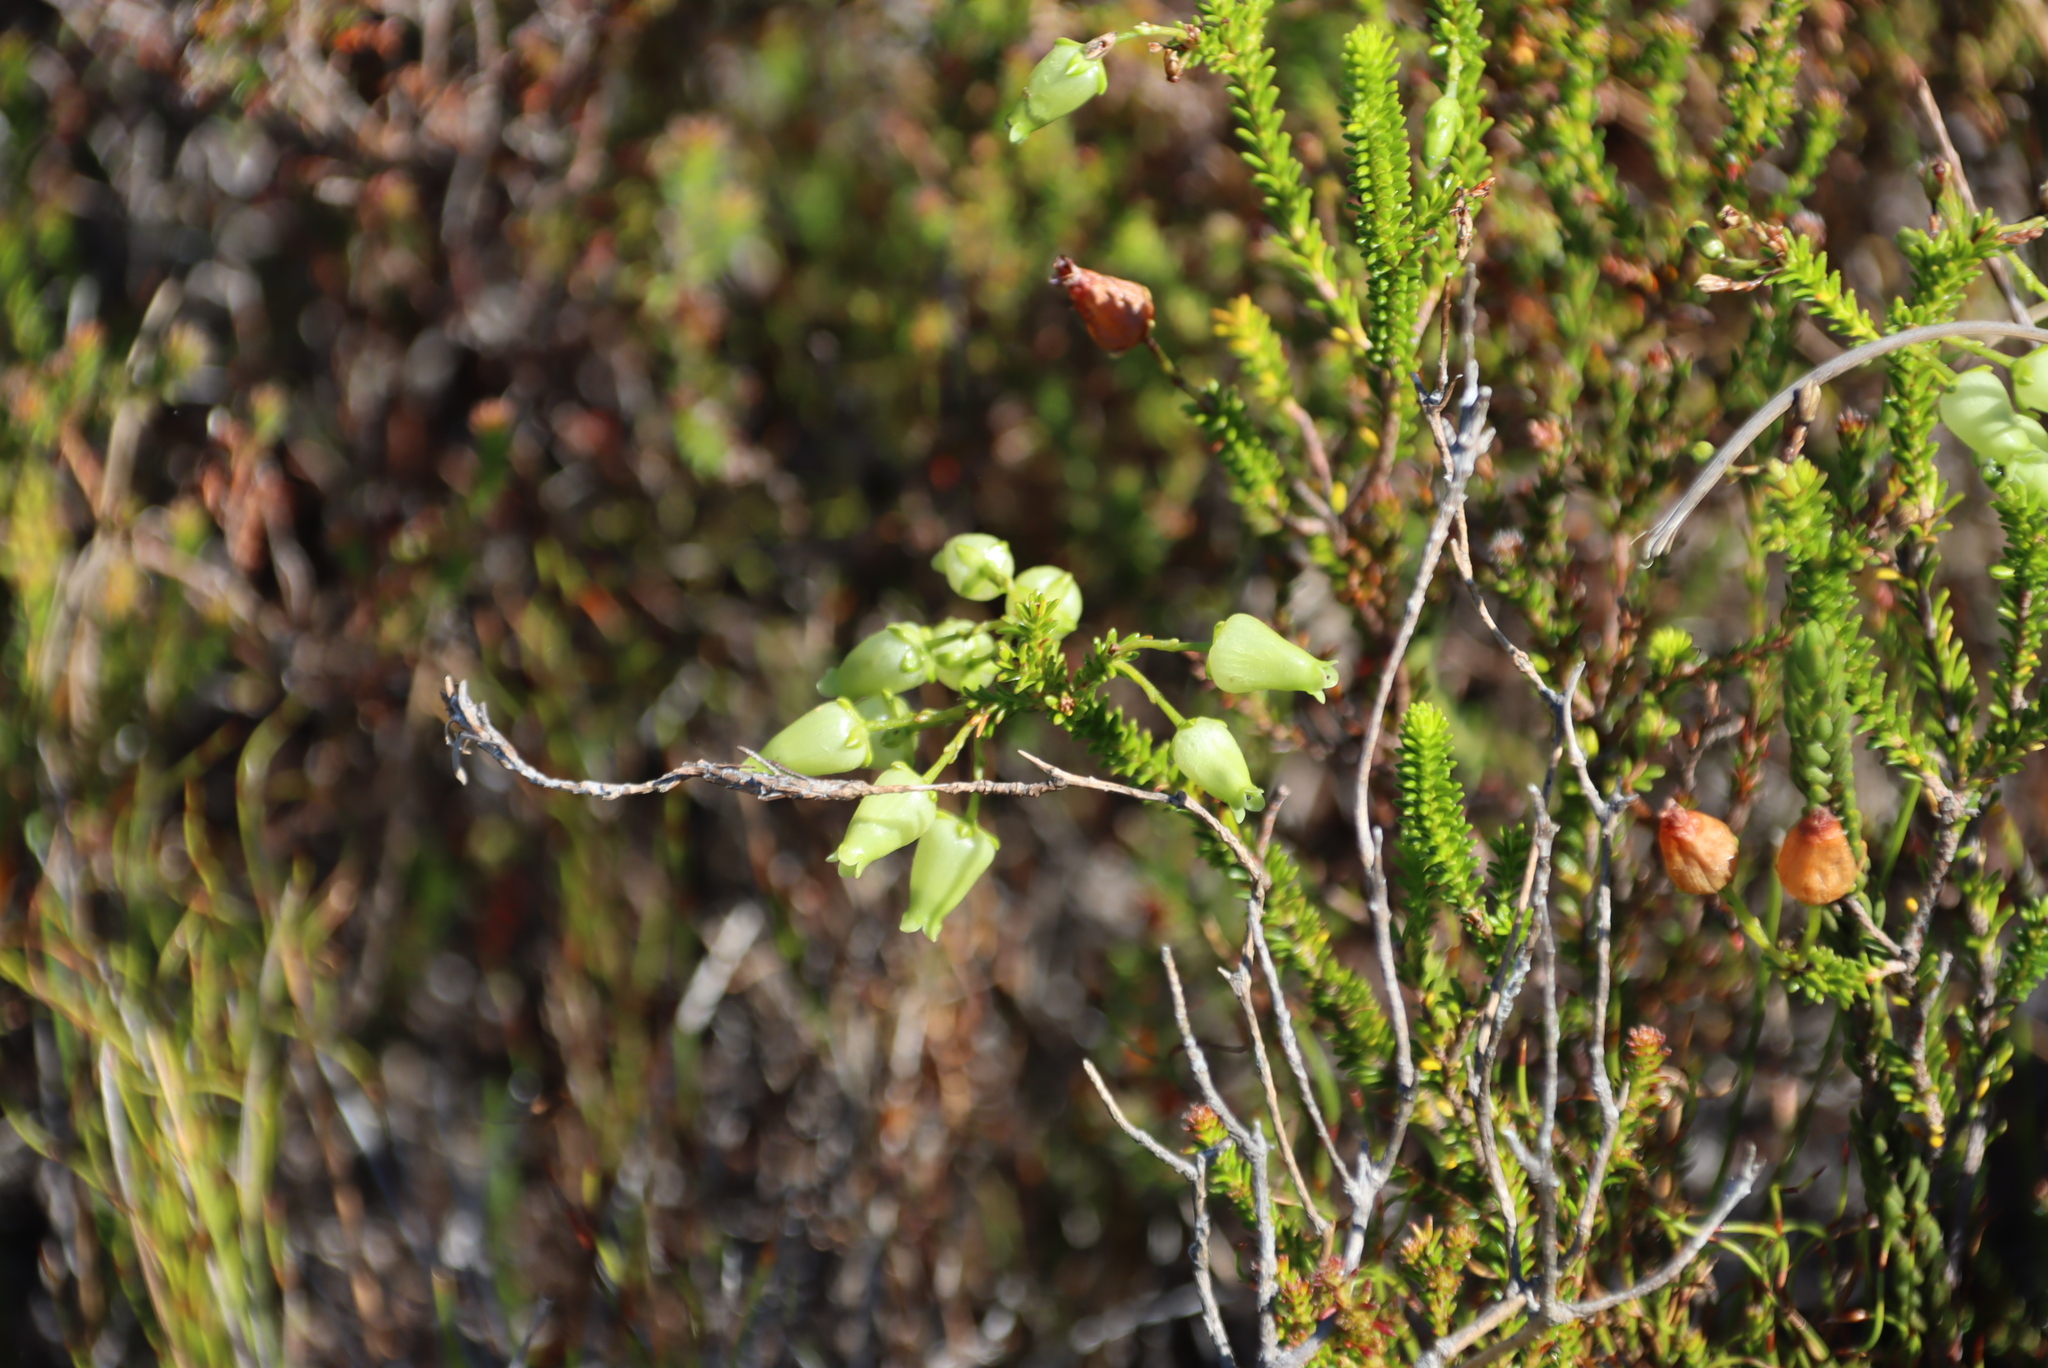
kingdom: Plantae
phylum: Tracheophyta
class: Magnoliopsida
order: Ericales
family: Ericaceae
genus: Erica
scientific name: Erica urna-viridis
